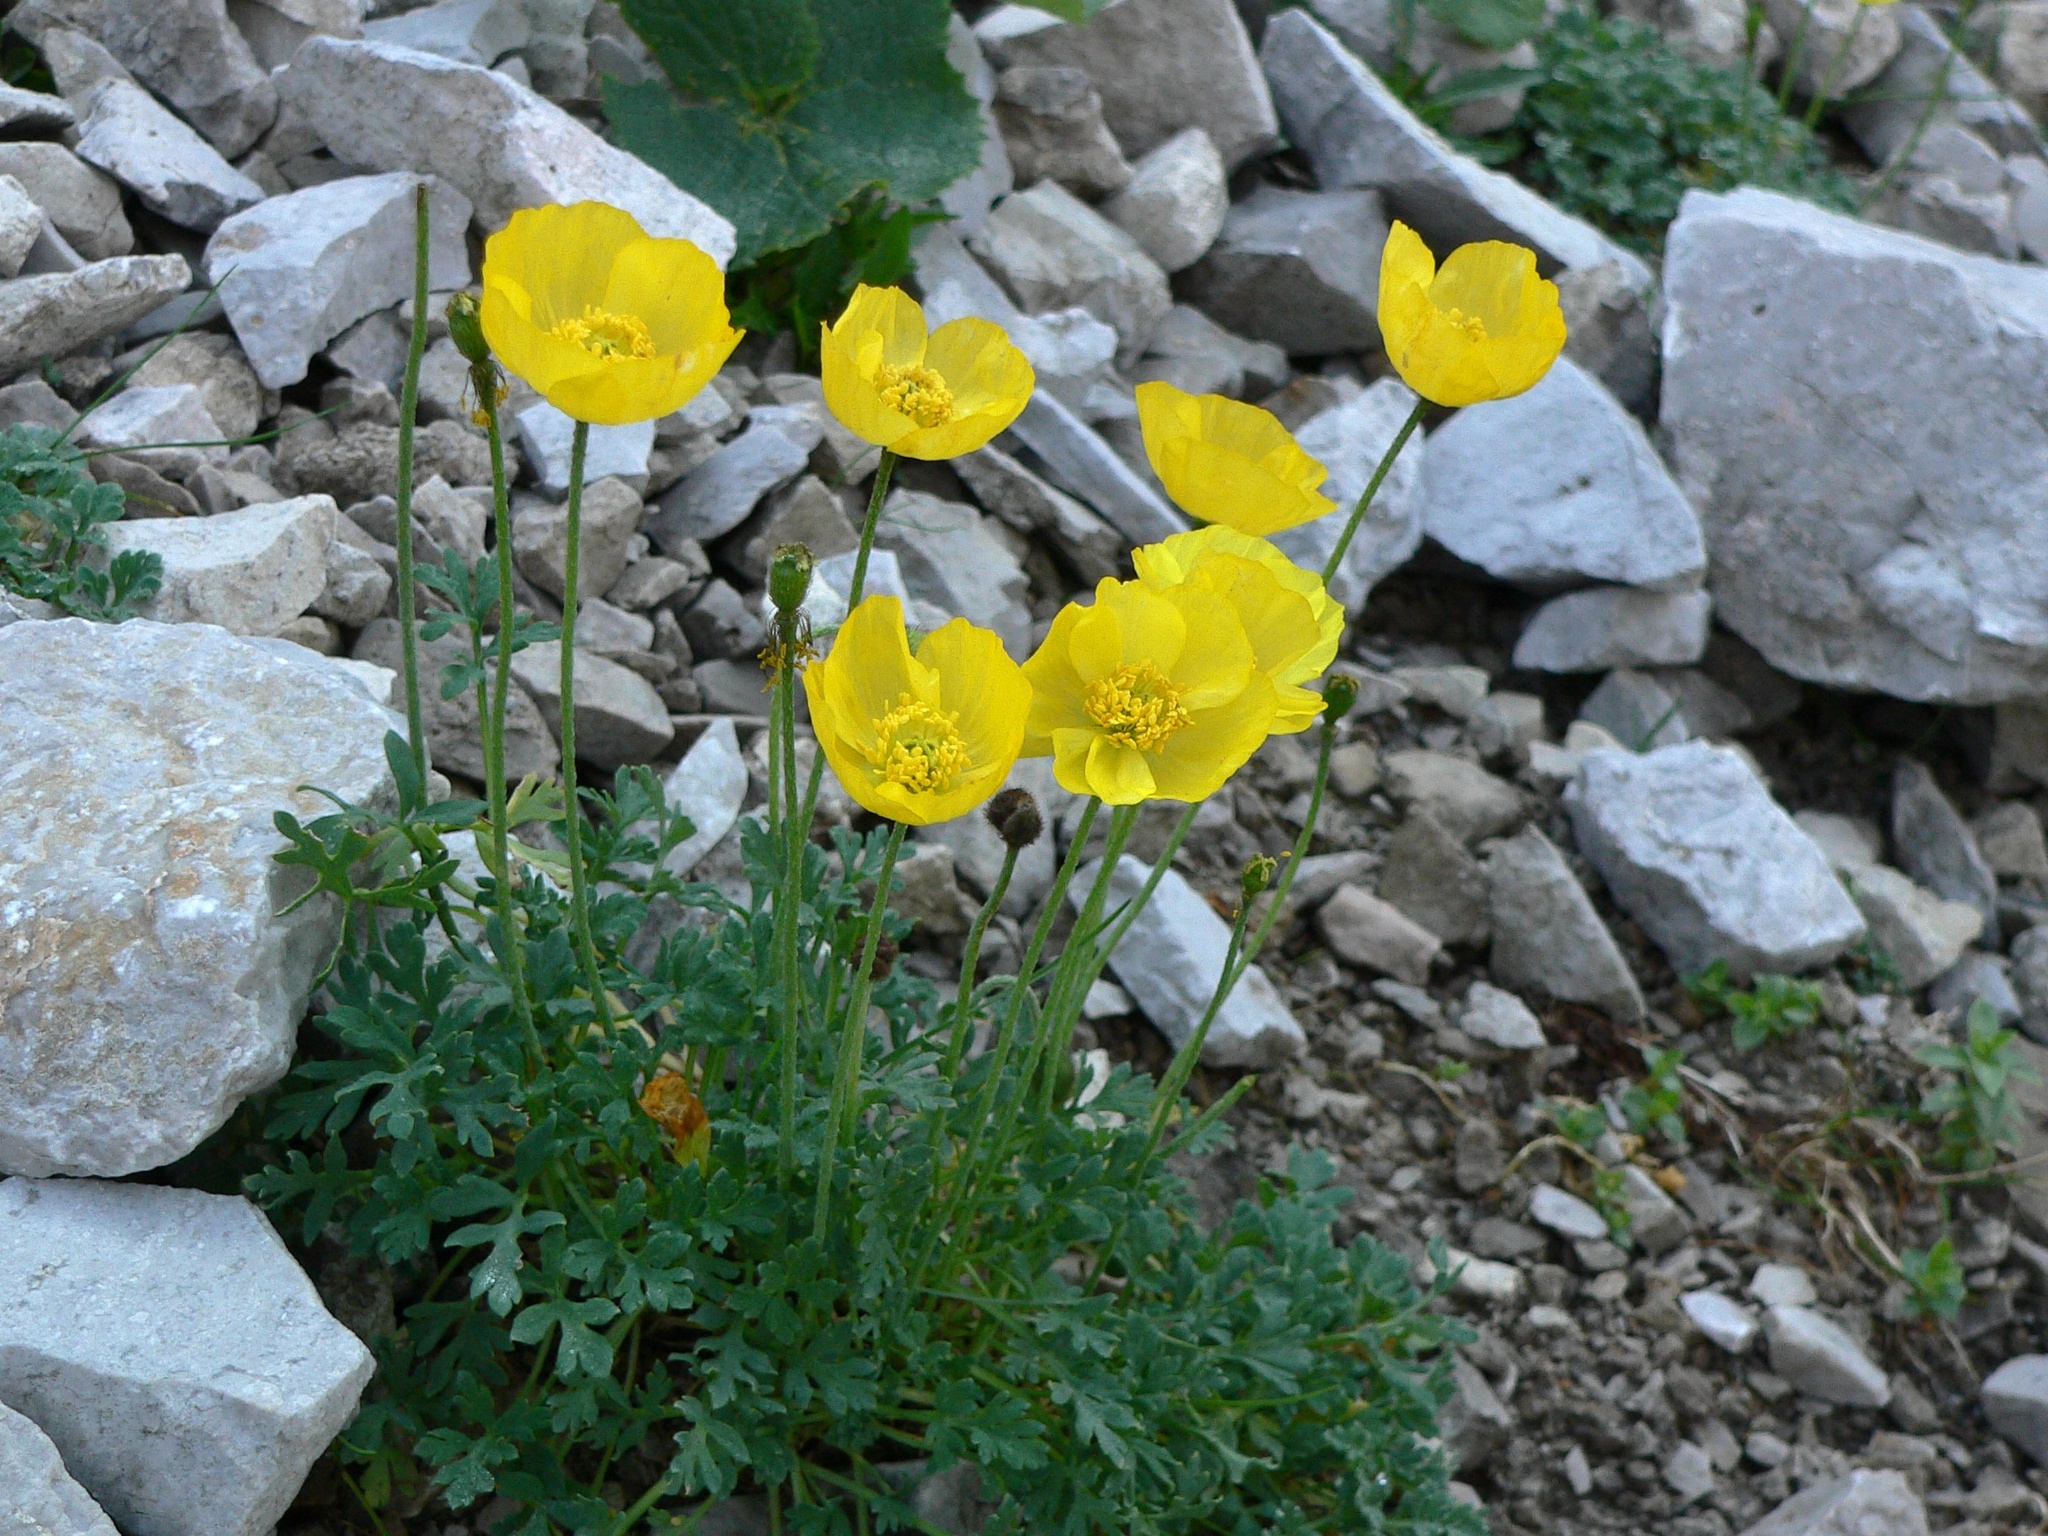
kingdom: Plantae
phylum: Tracheophyta
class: Magnoliopsida
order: Ranunculales
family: Papaveraceae
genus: Papaver
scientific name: Papaver alpinum
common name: Austrian poppy
